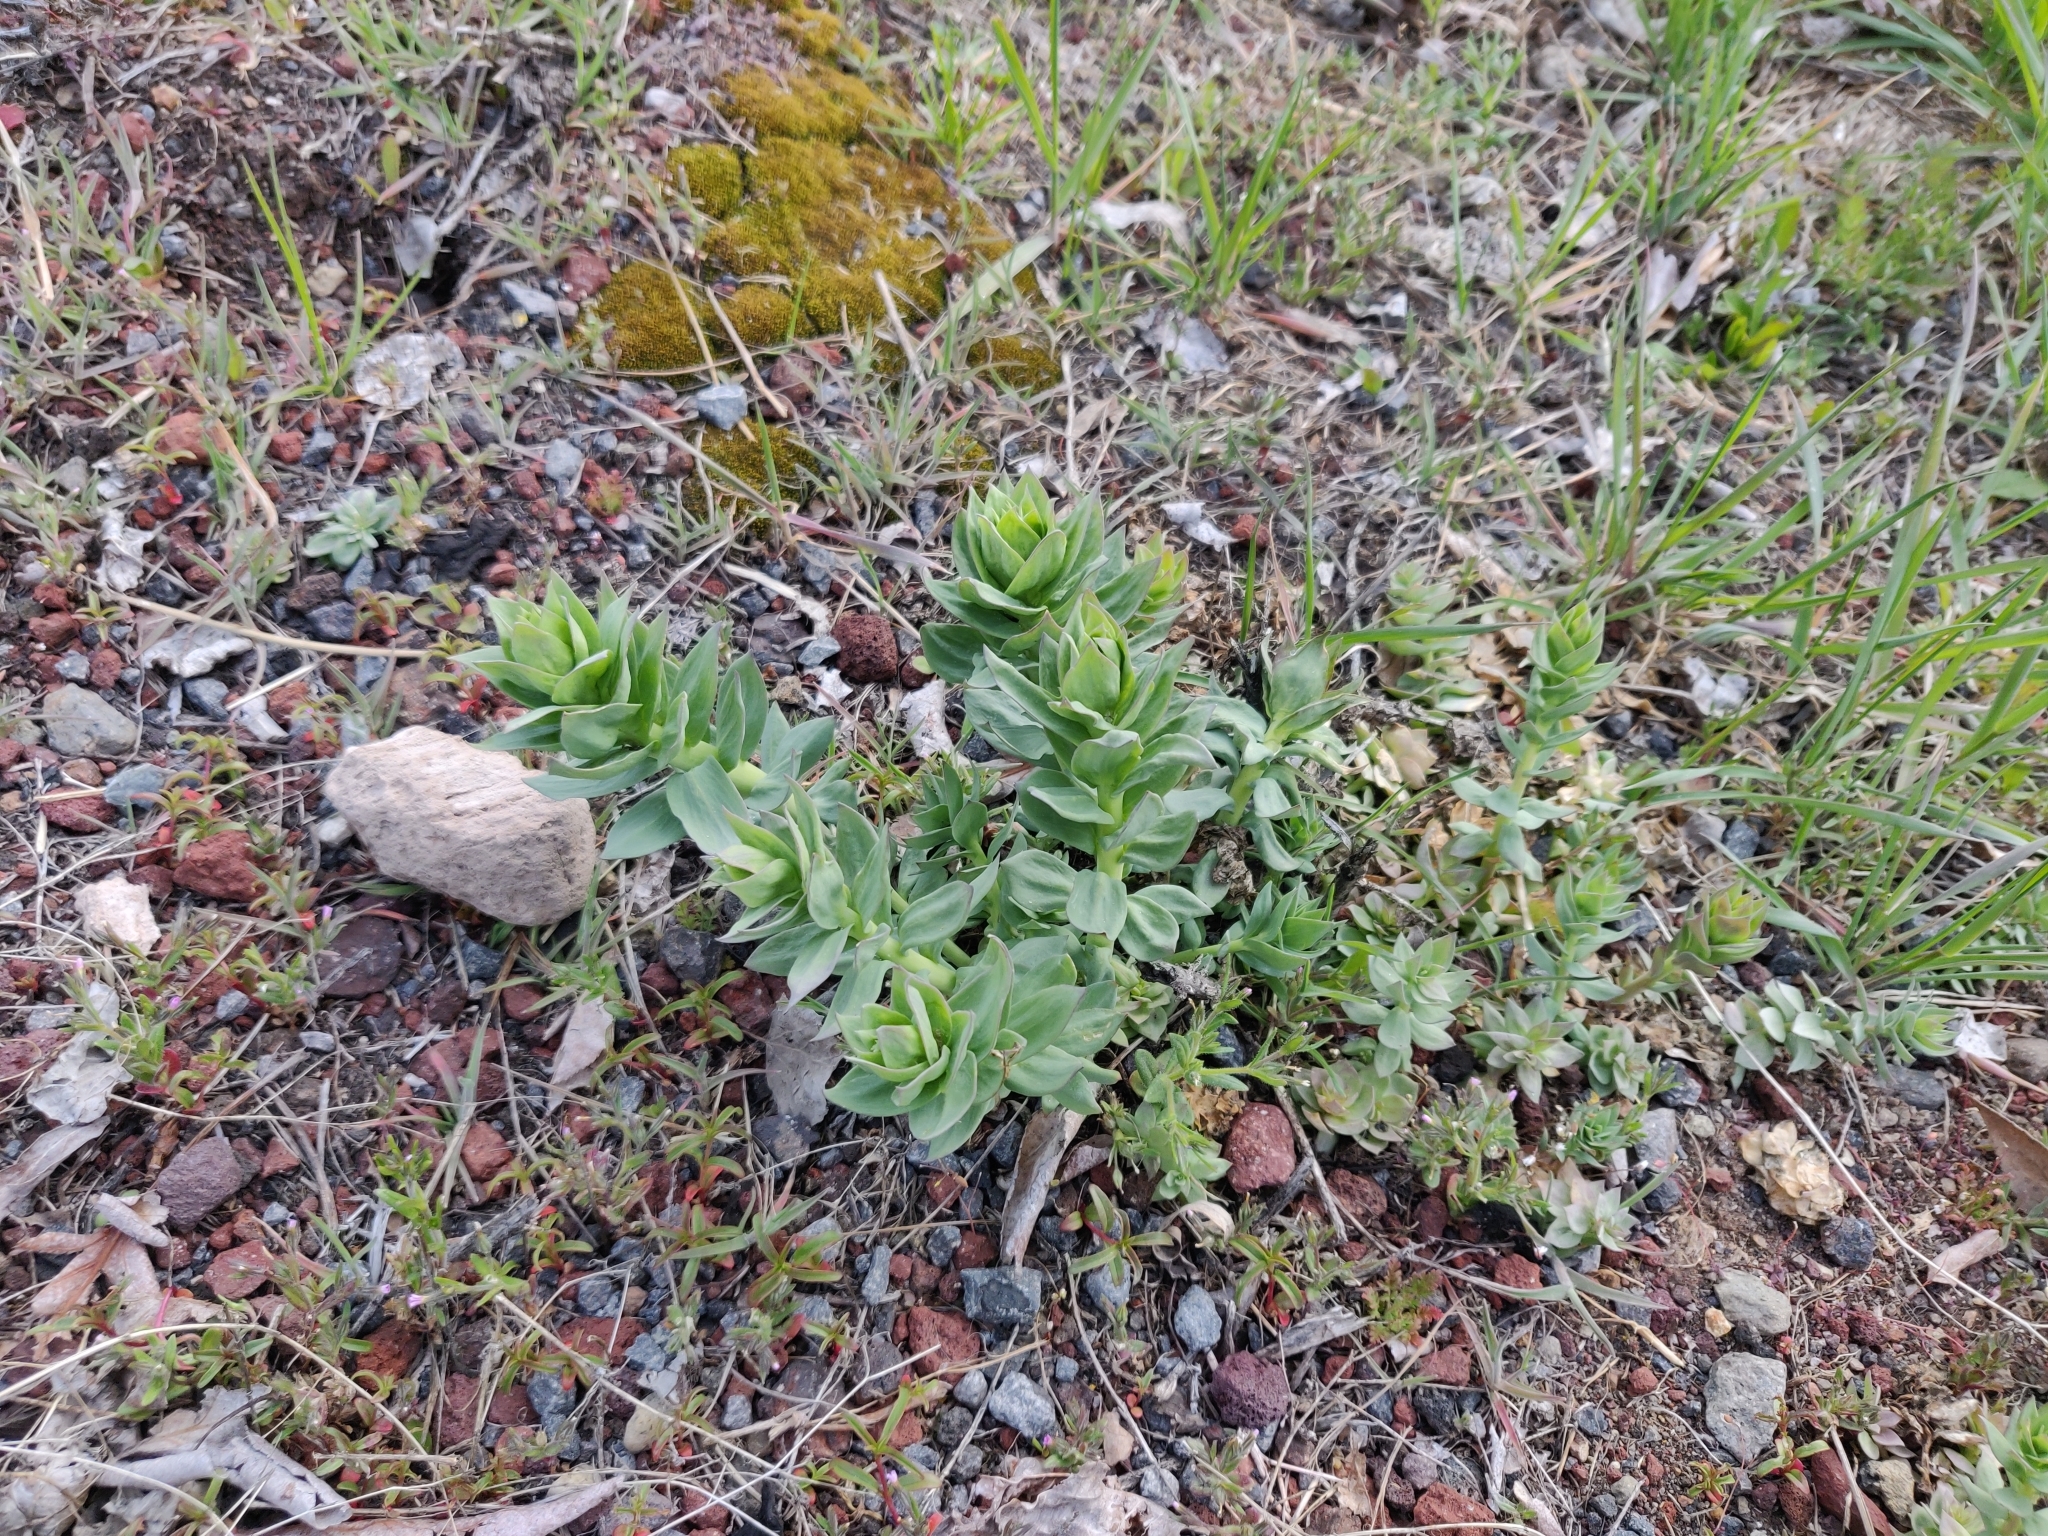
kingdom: Plantae
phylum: Tracheophyta
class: Magnoliopsida
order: Lamiales
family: Plantaginaceae
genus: Linaria
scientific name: Linaria dalmatica
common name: Dalmatian toadflax
